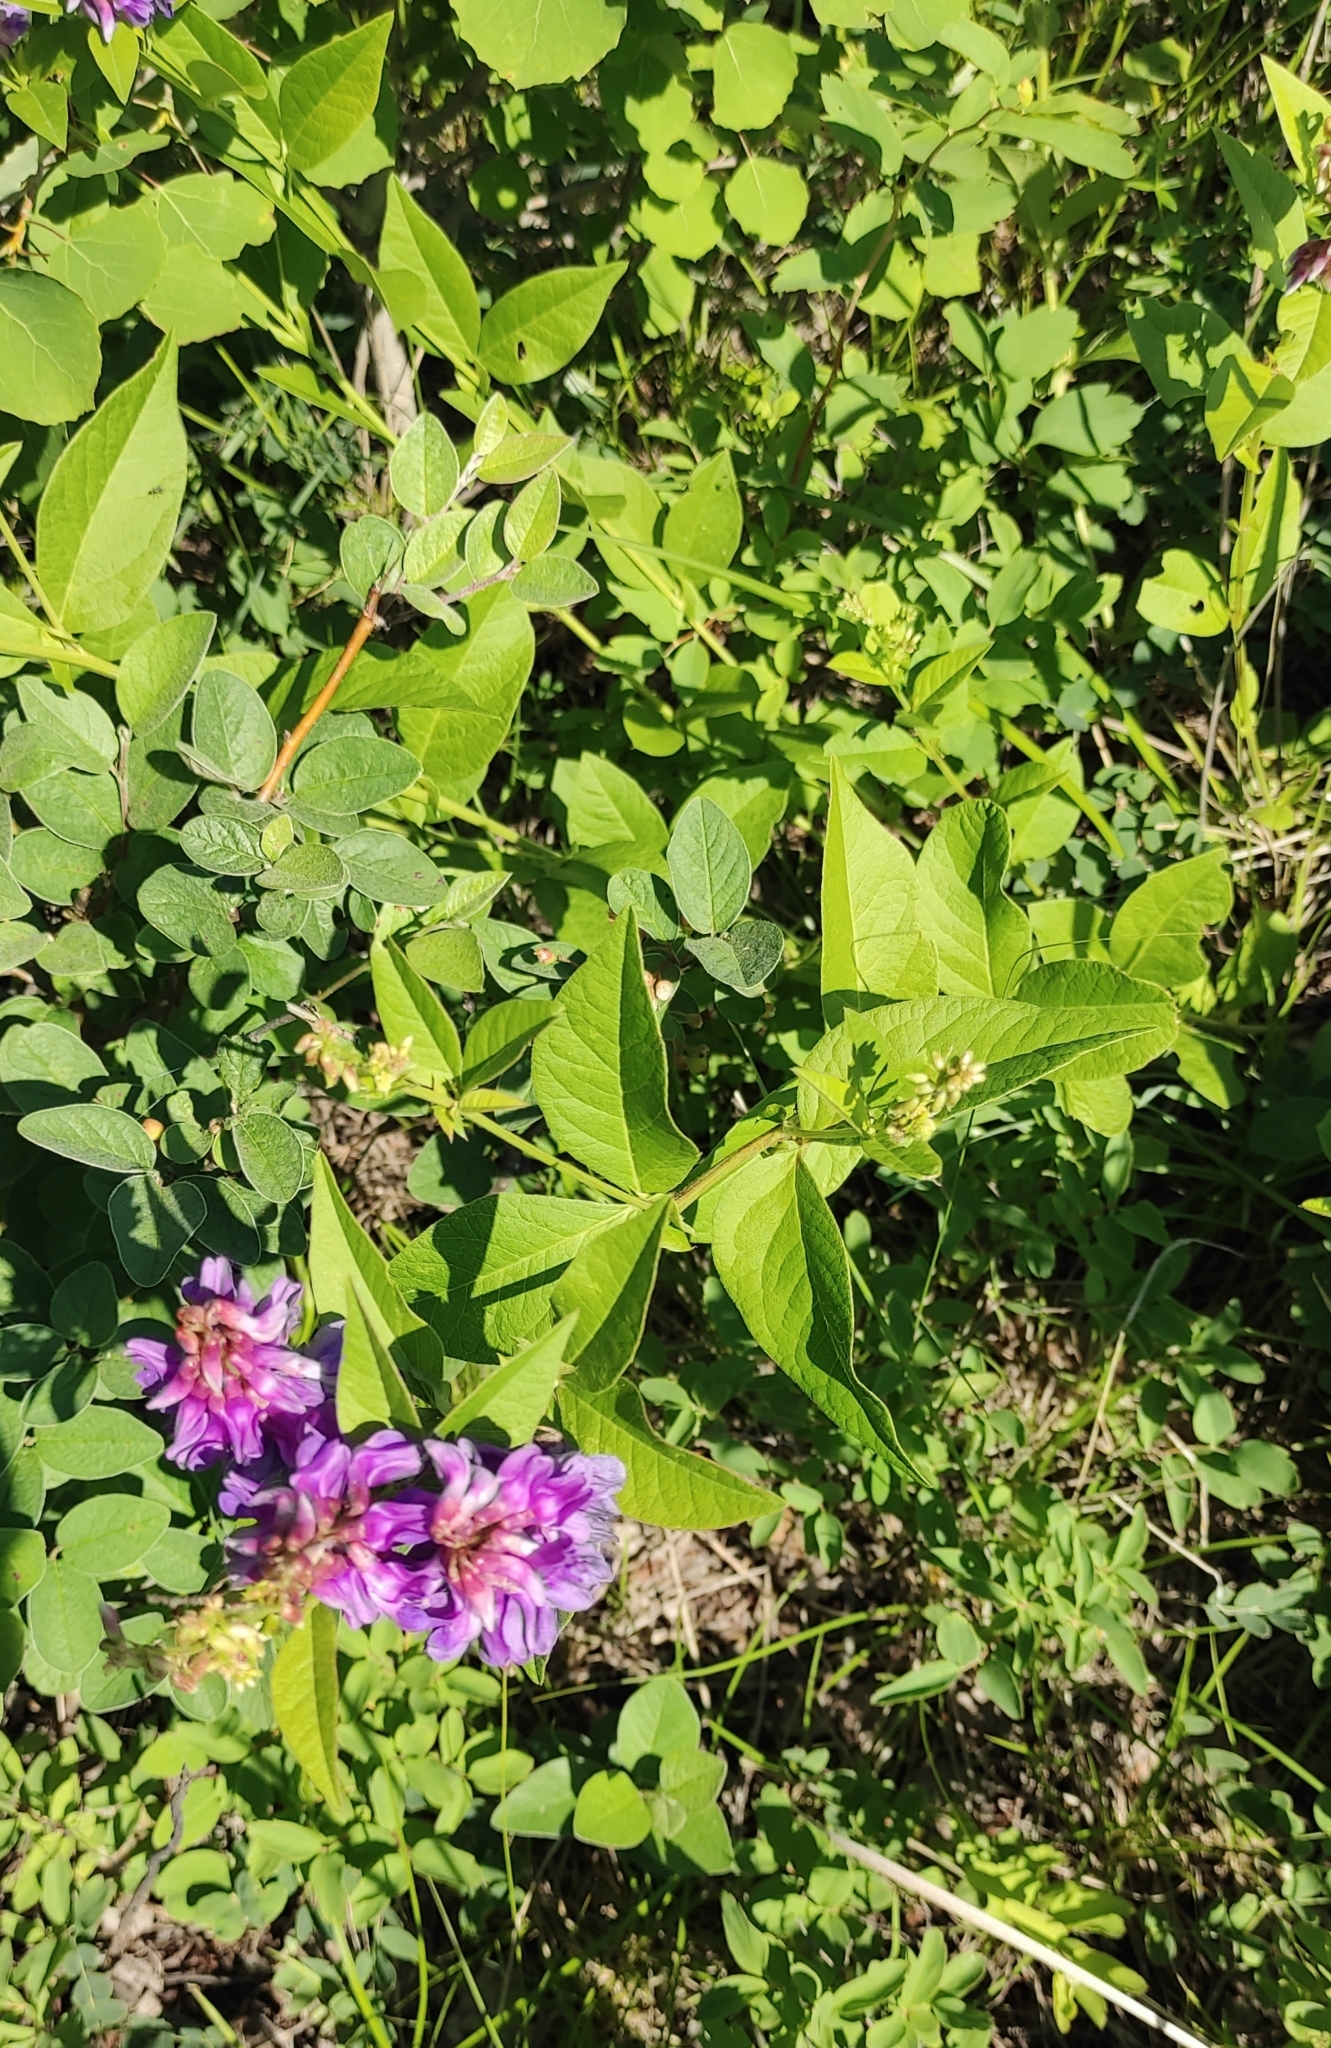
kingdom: Plantae
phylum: Tracheophyta
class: Magnoliopsida
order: Fabales
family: Fabaceae
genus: Vicia
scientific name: Vicia unijuga
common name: Two-leaf vetch
